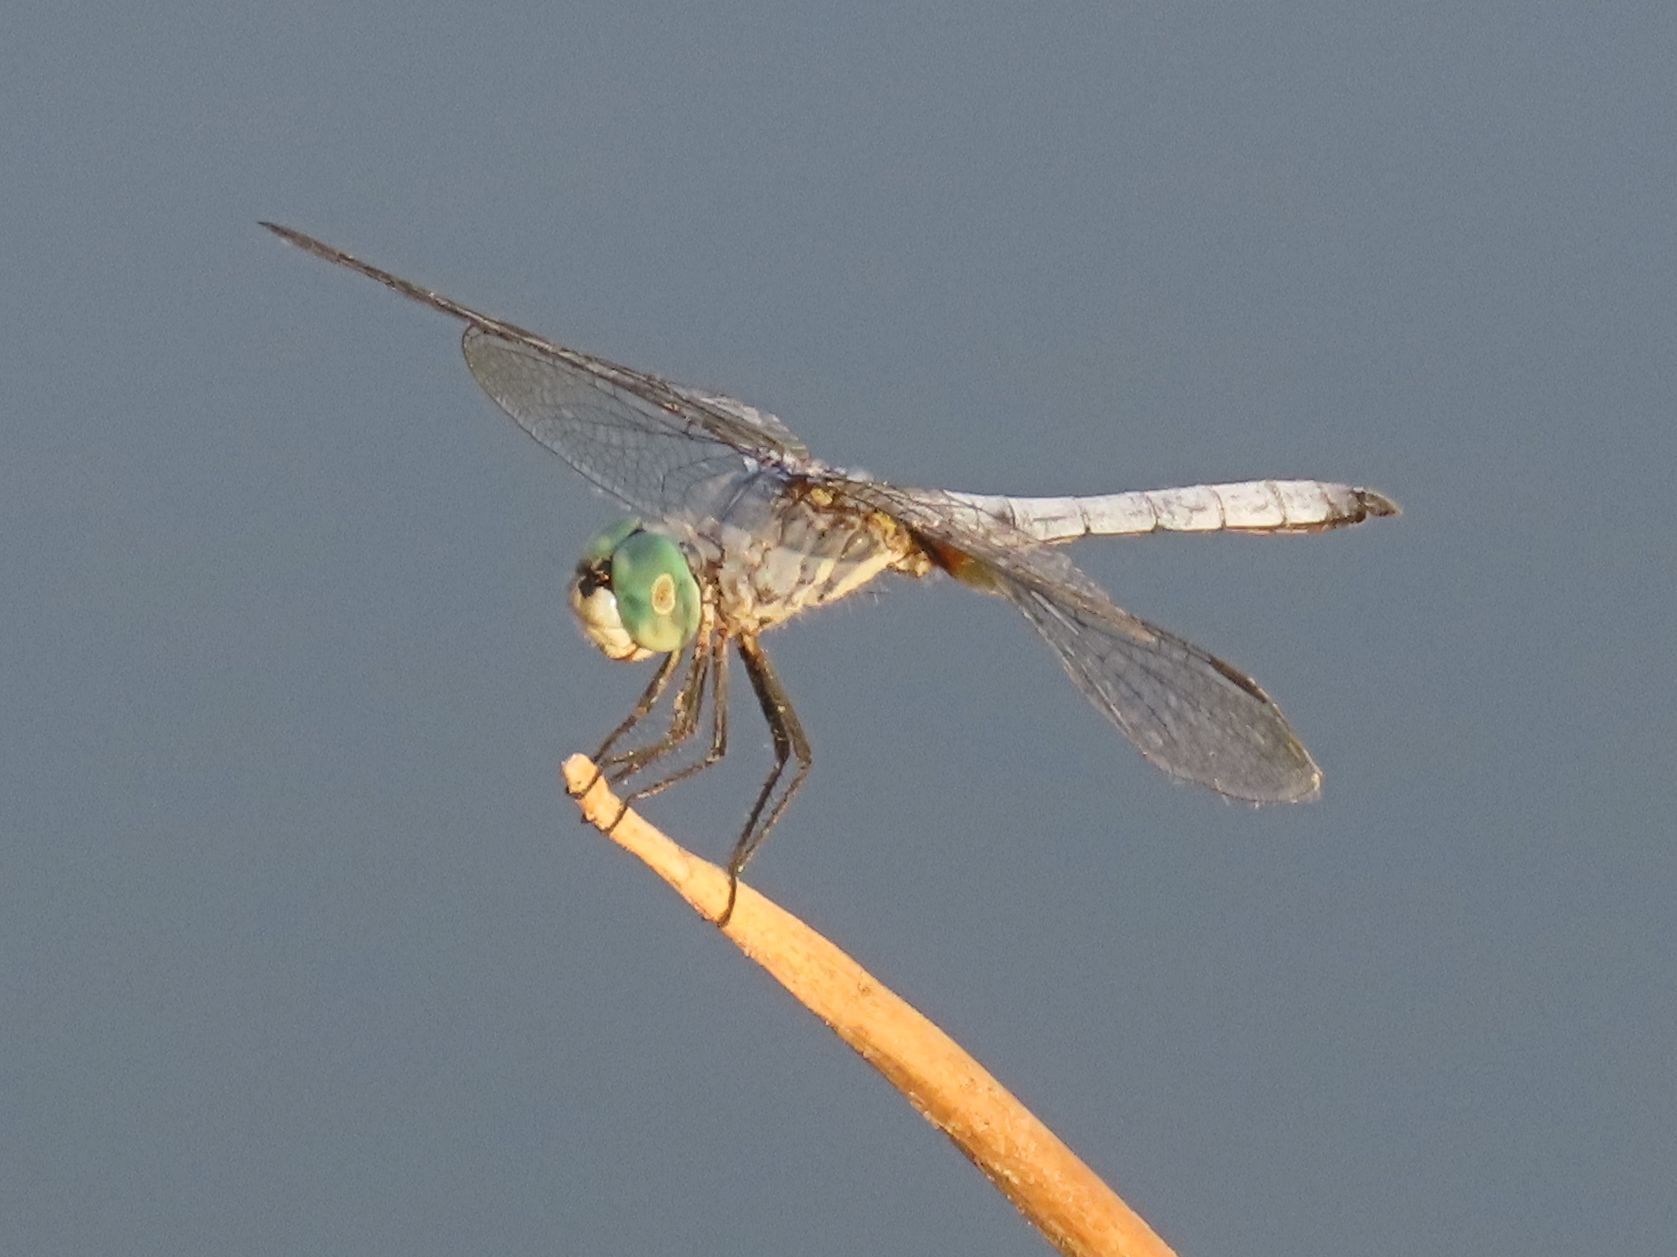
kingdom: Animalia
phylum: Arthropoda
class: Insecta
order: Odonata
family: Libellulidae
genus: Pachydiplax
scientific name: Pachydiplax longipennis
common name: Blue dasher
